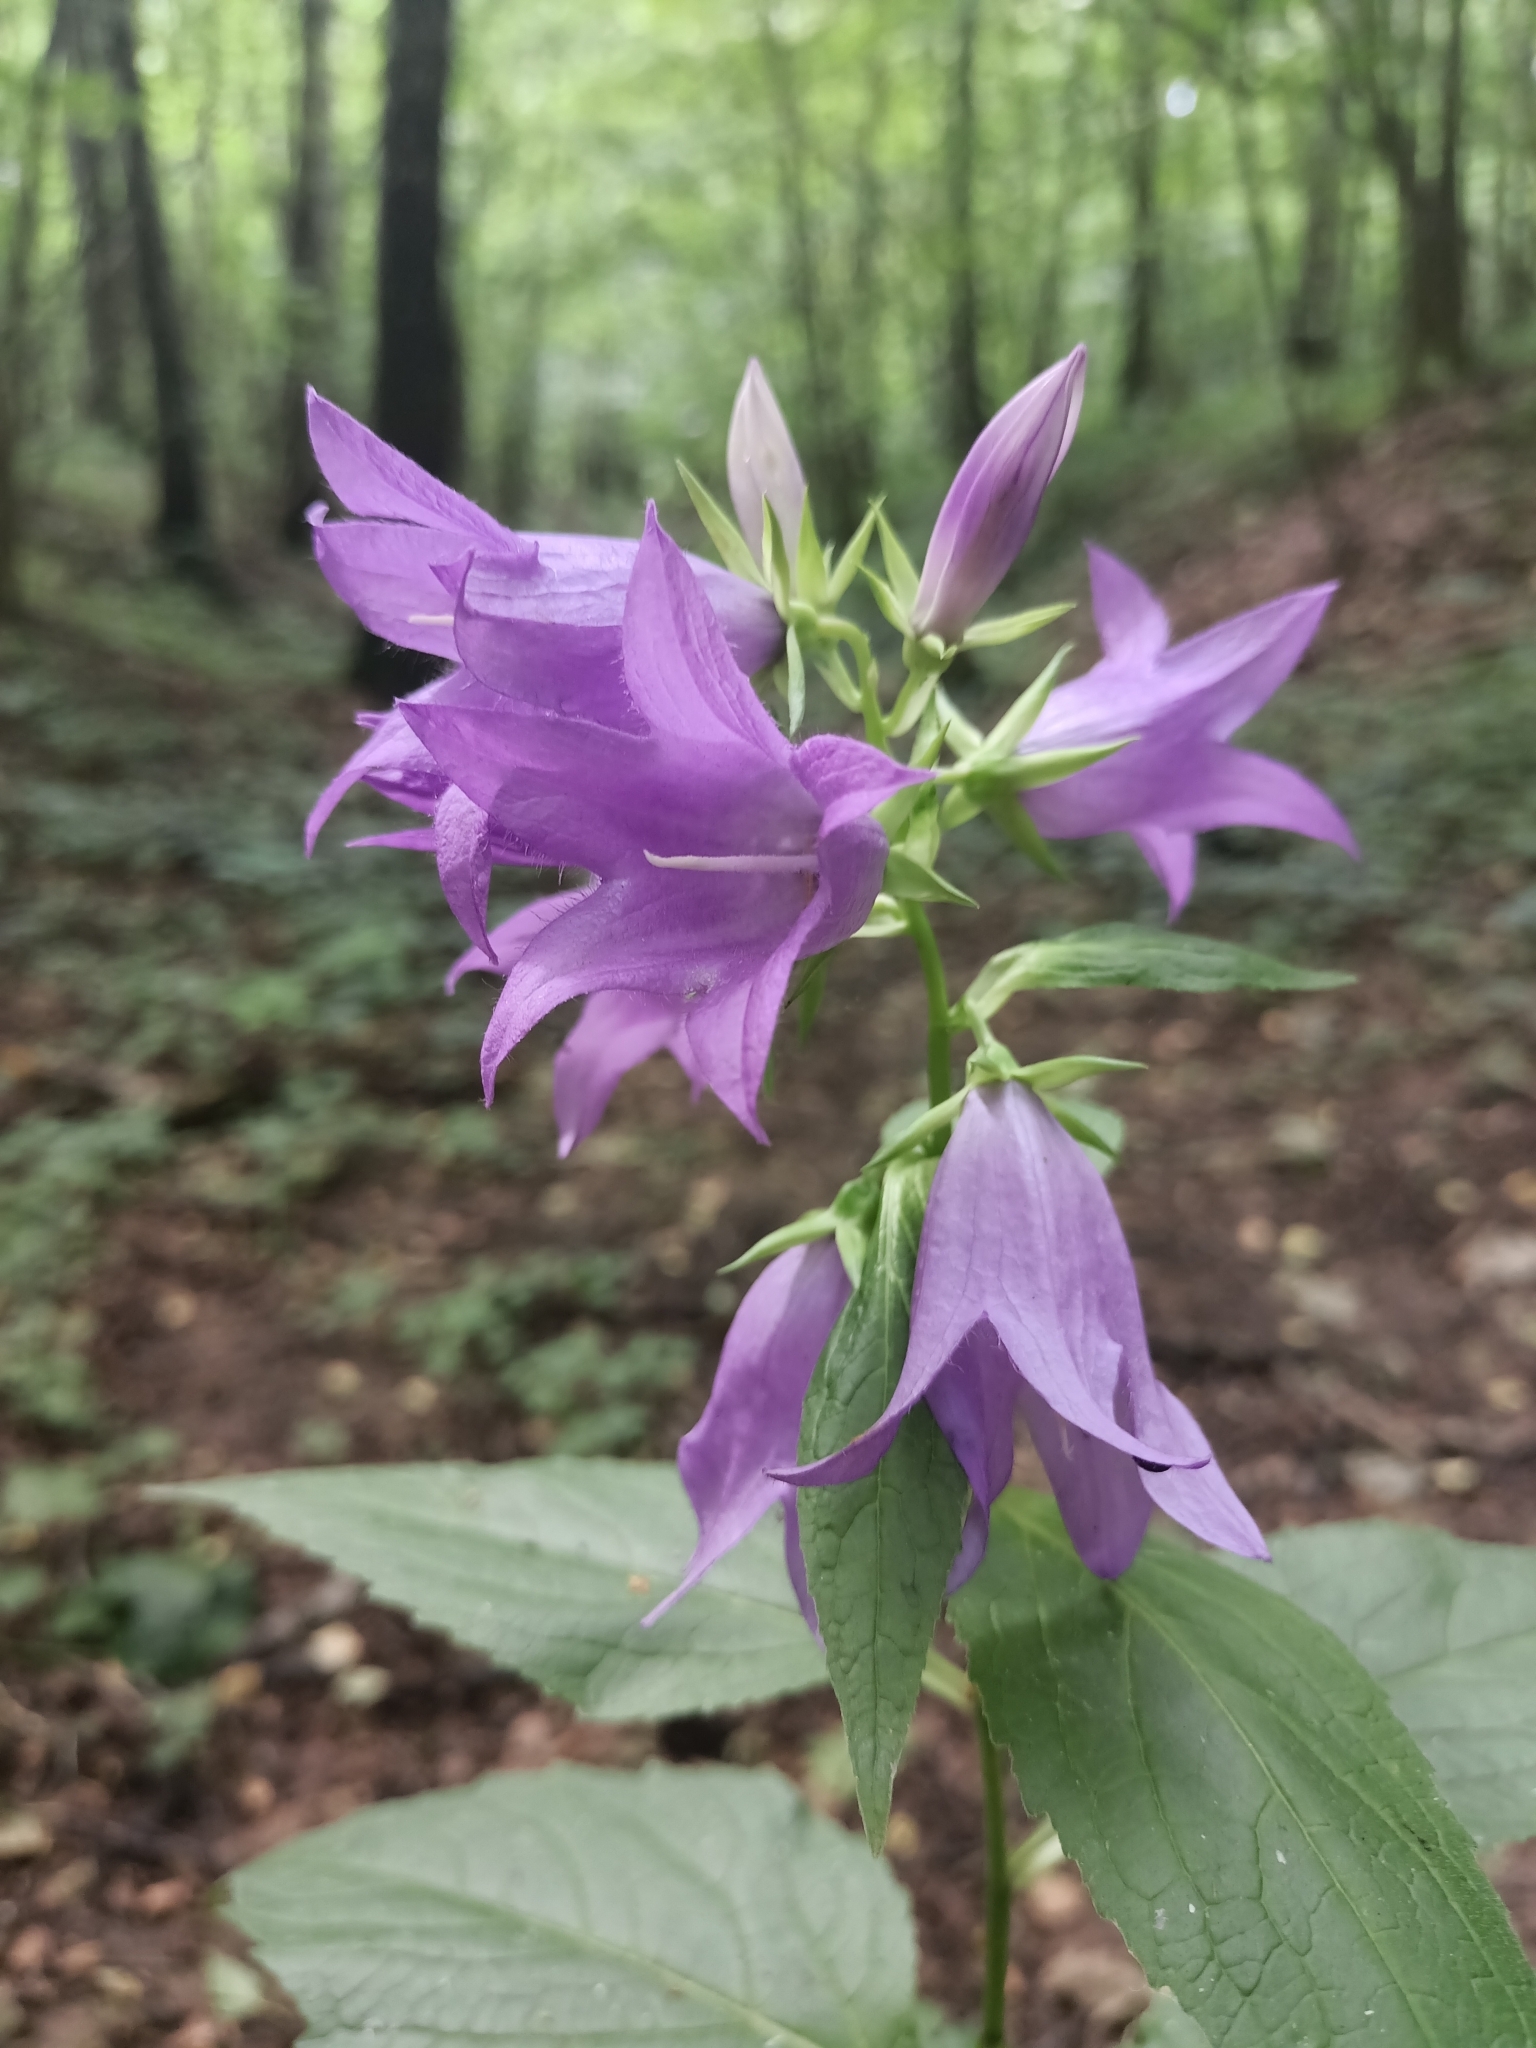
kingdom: Plantae
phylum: Tracheophyta
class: Magnoliopsida
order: Asterales
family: Campanulaceae
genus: Campanula
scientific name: Campanula latifolia
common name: Giant bellflower
